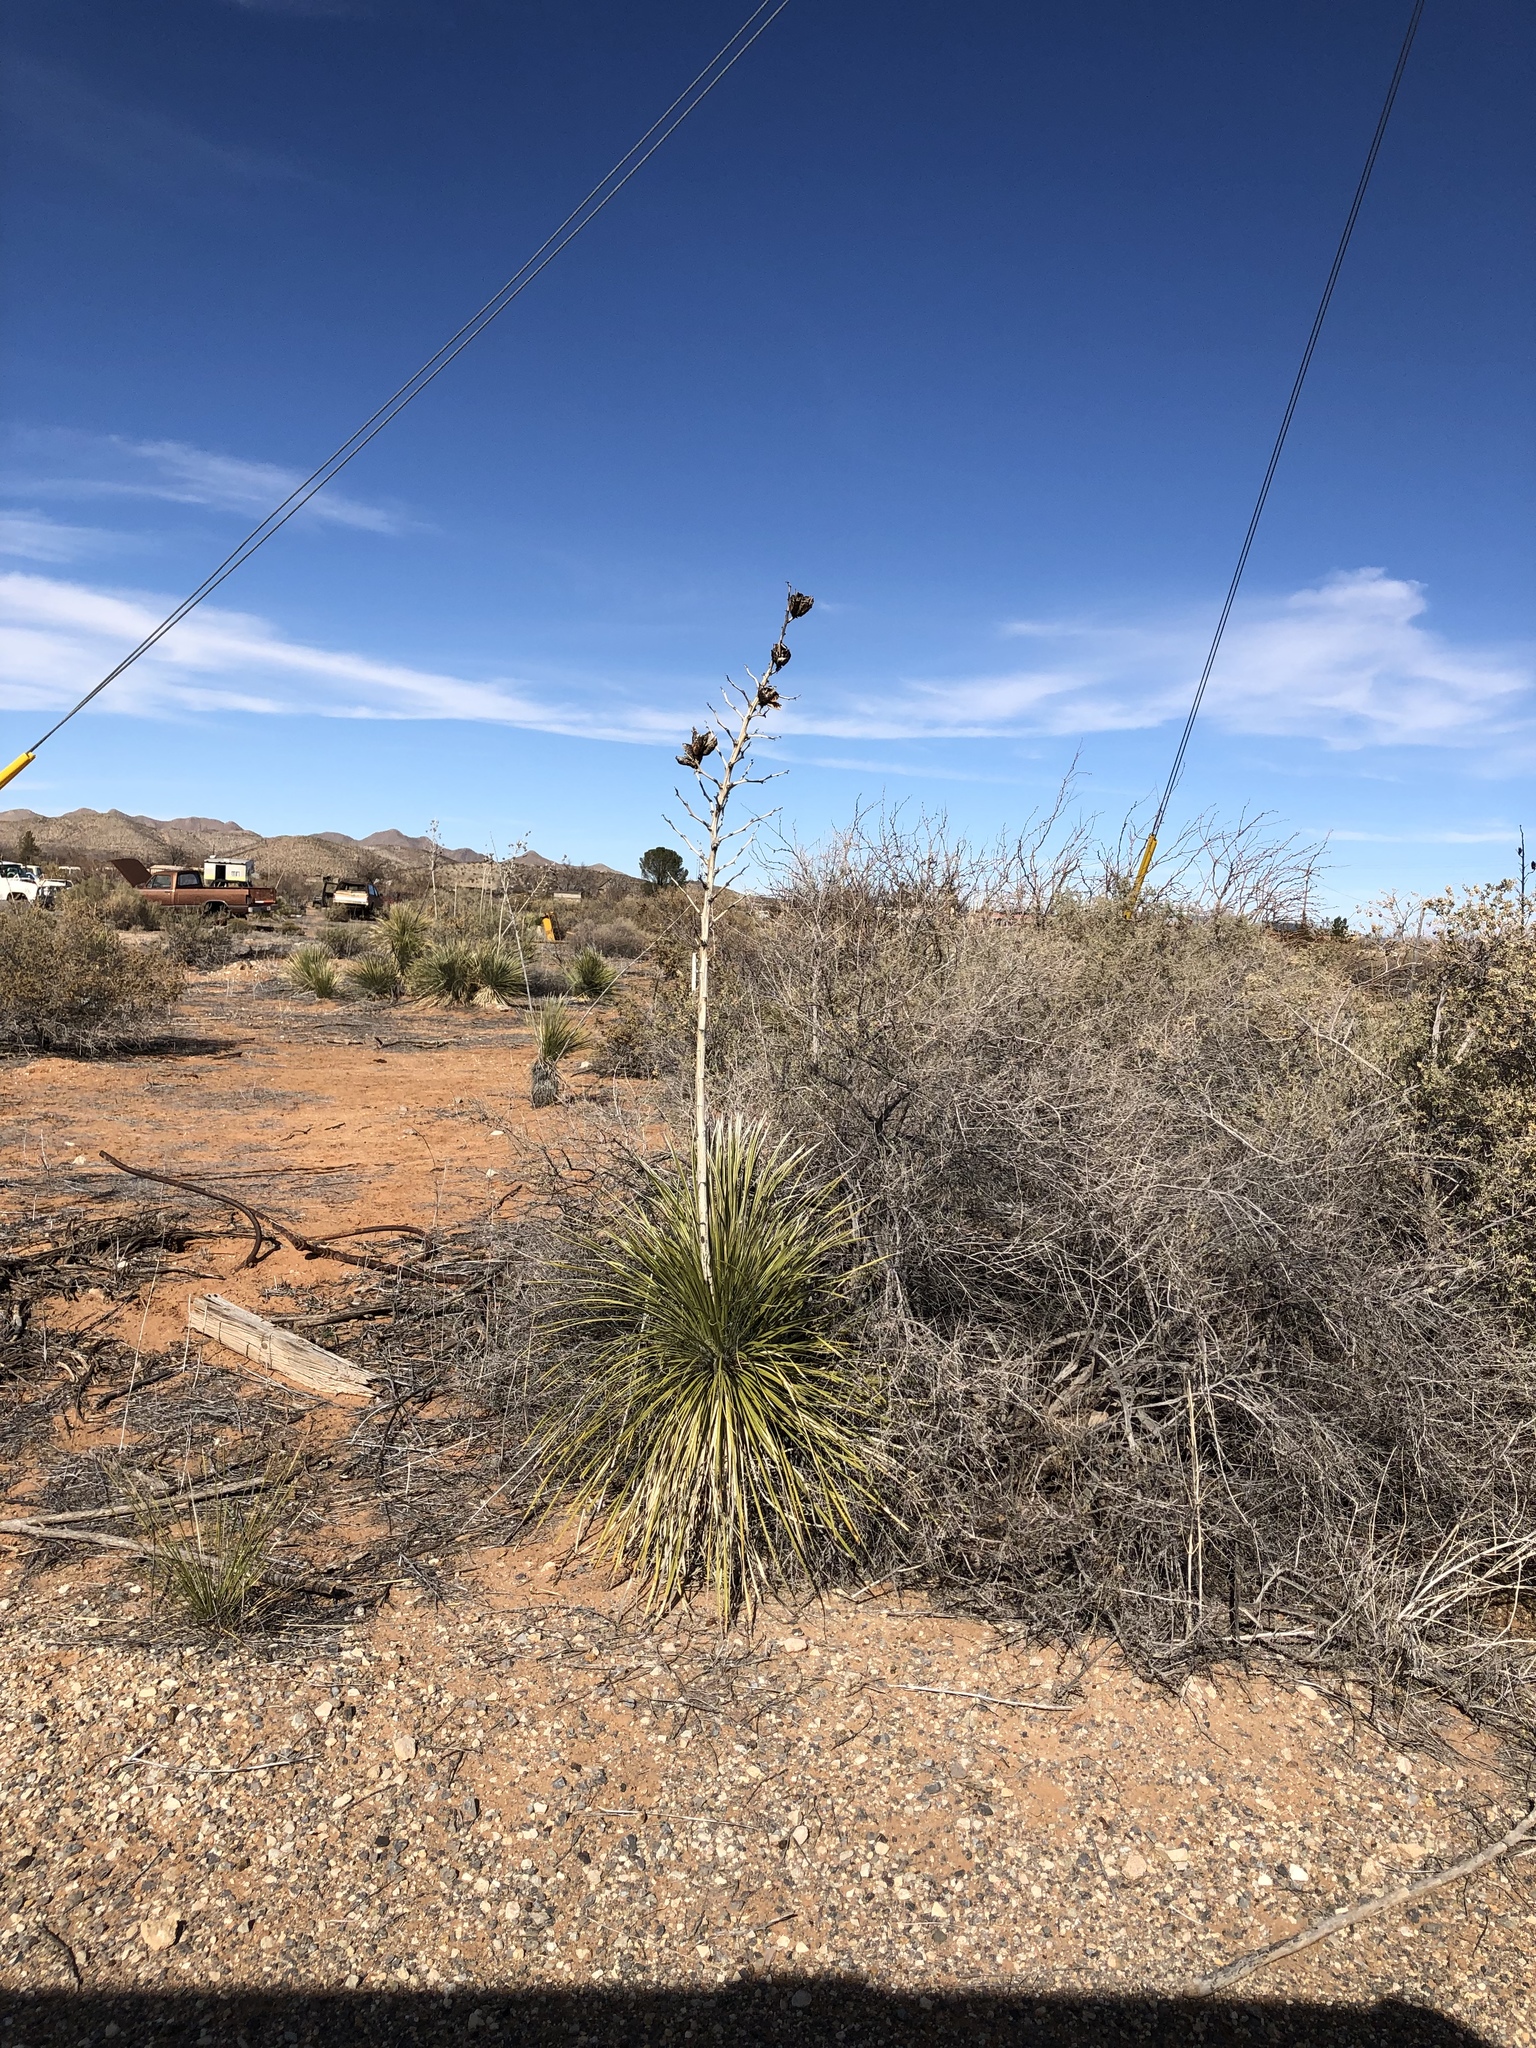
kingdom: Plantae
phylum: Tracheophyta
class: Liliopsida
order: Asparagales
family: Asparagaceae
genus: Yucca
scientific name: Yucca elata
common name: Palmella
